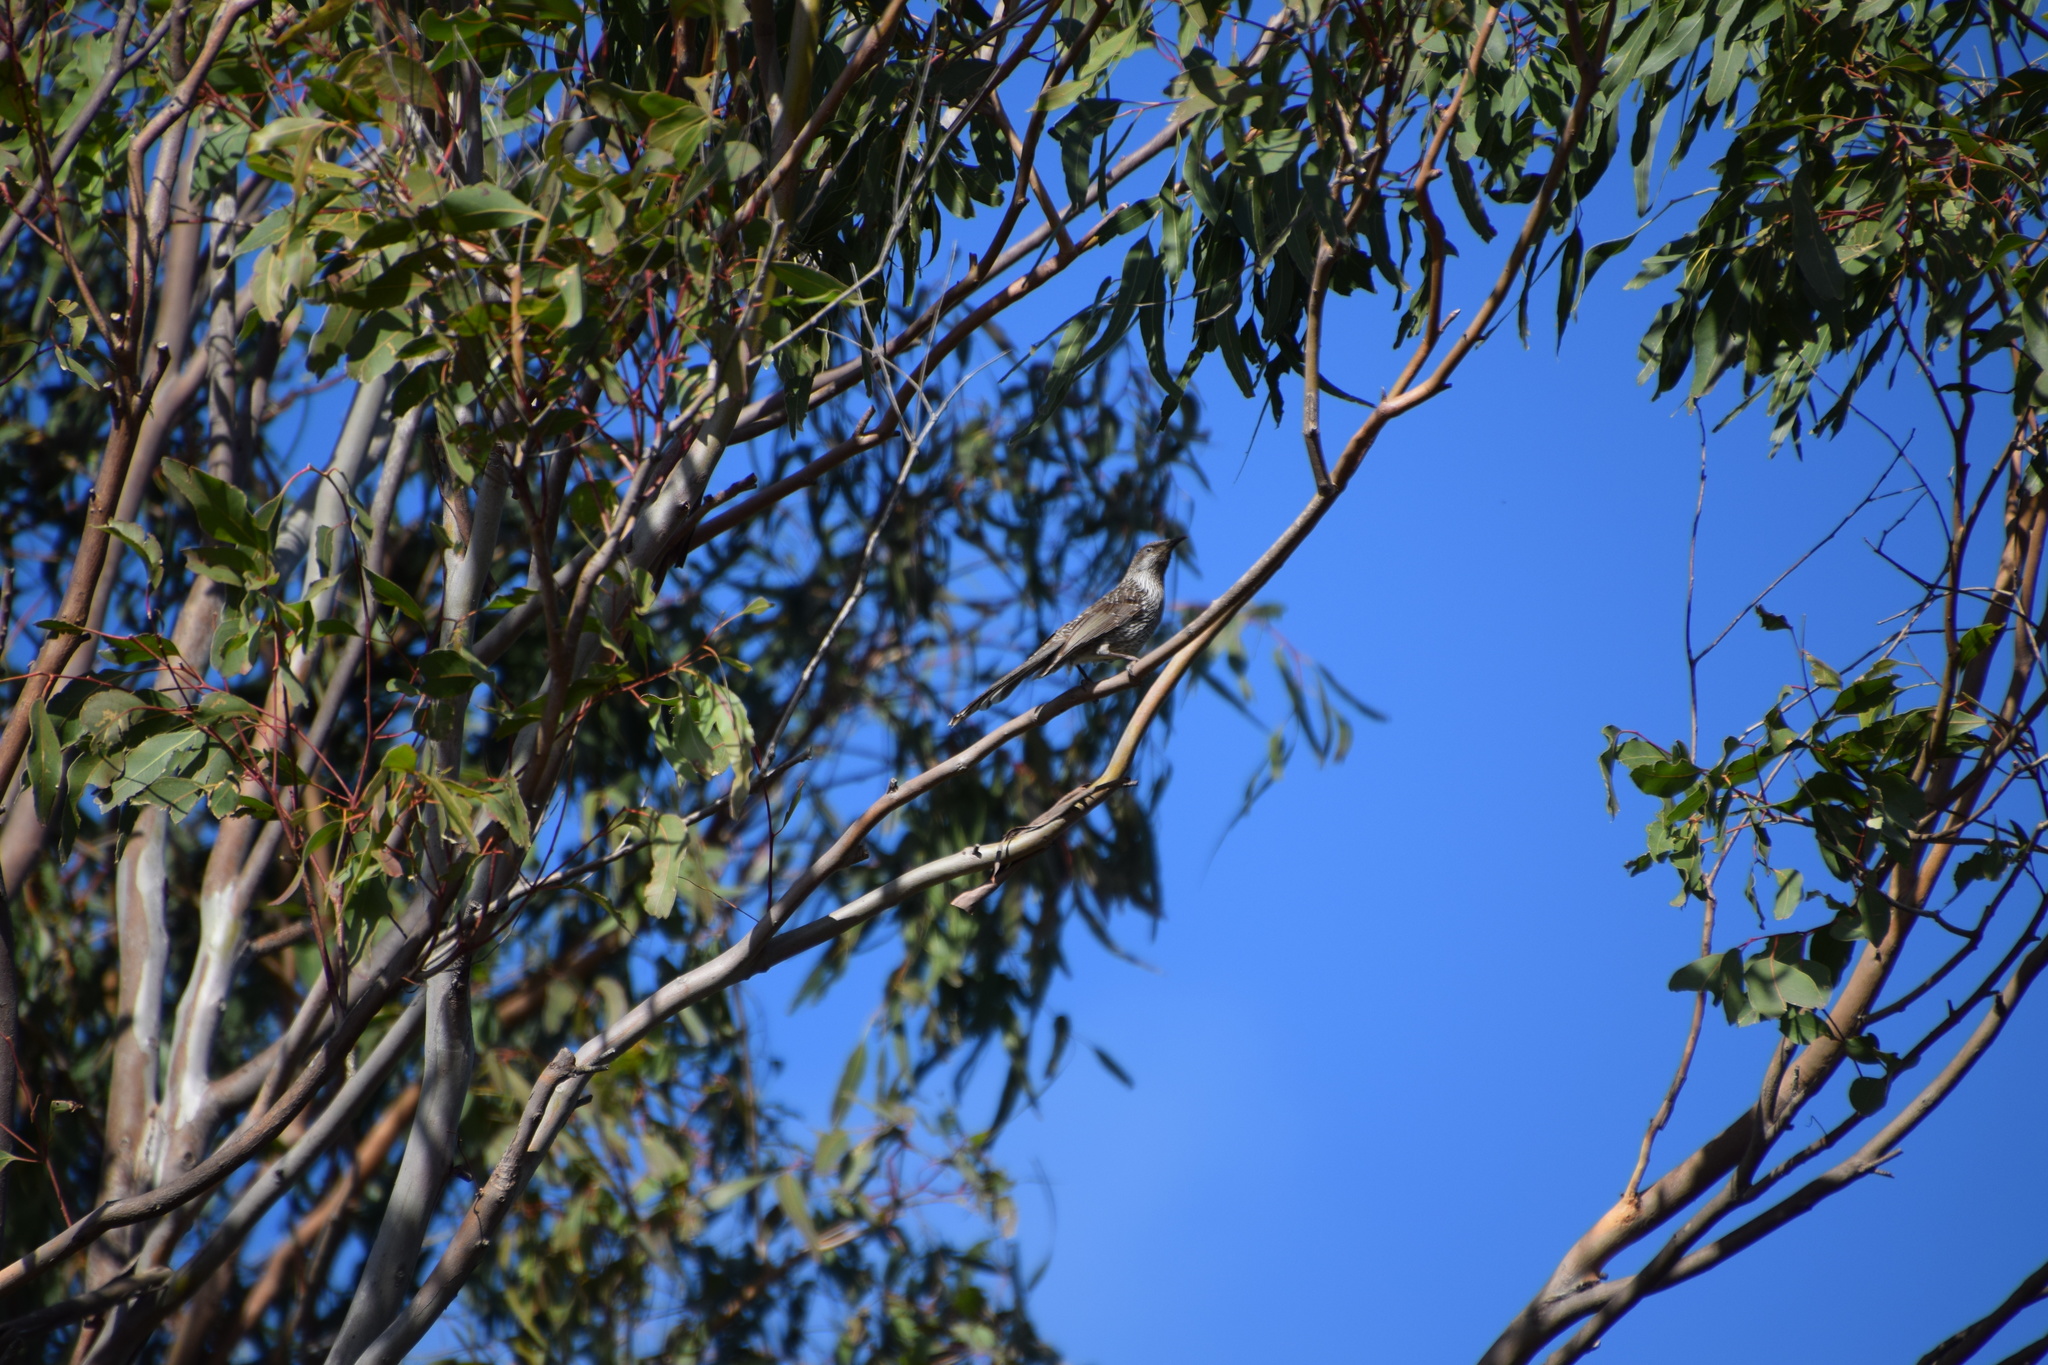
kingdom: Animalia
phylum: Chordata
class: Aves
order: Passeriformes
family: Meliphagidae
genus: Anthochaera
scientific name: Anthochaera chrysoptera
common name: Little wattlebird
